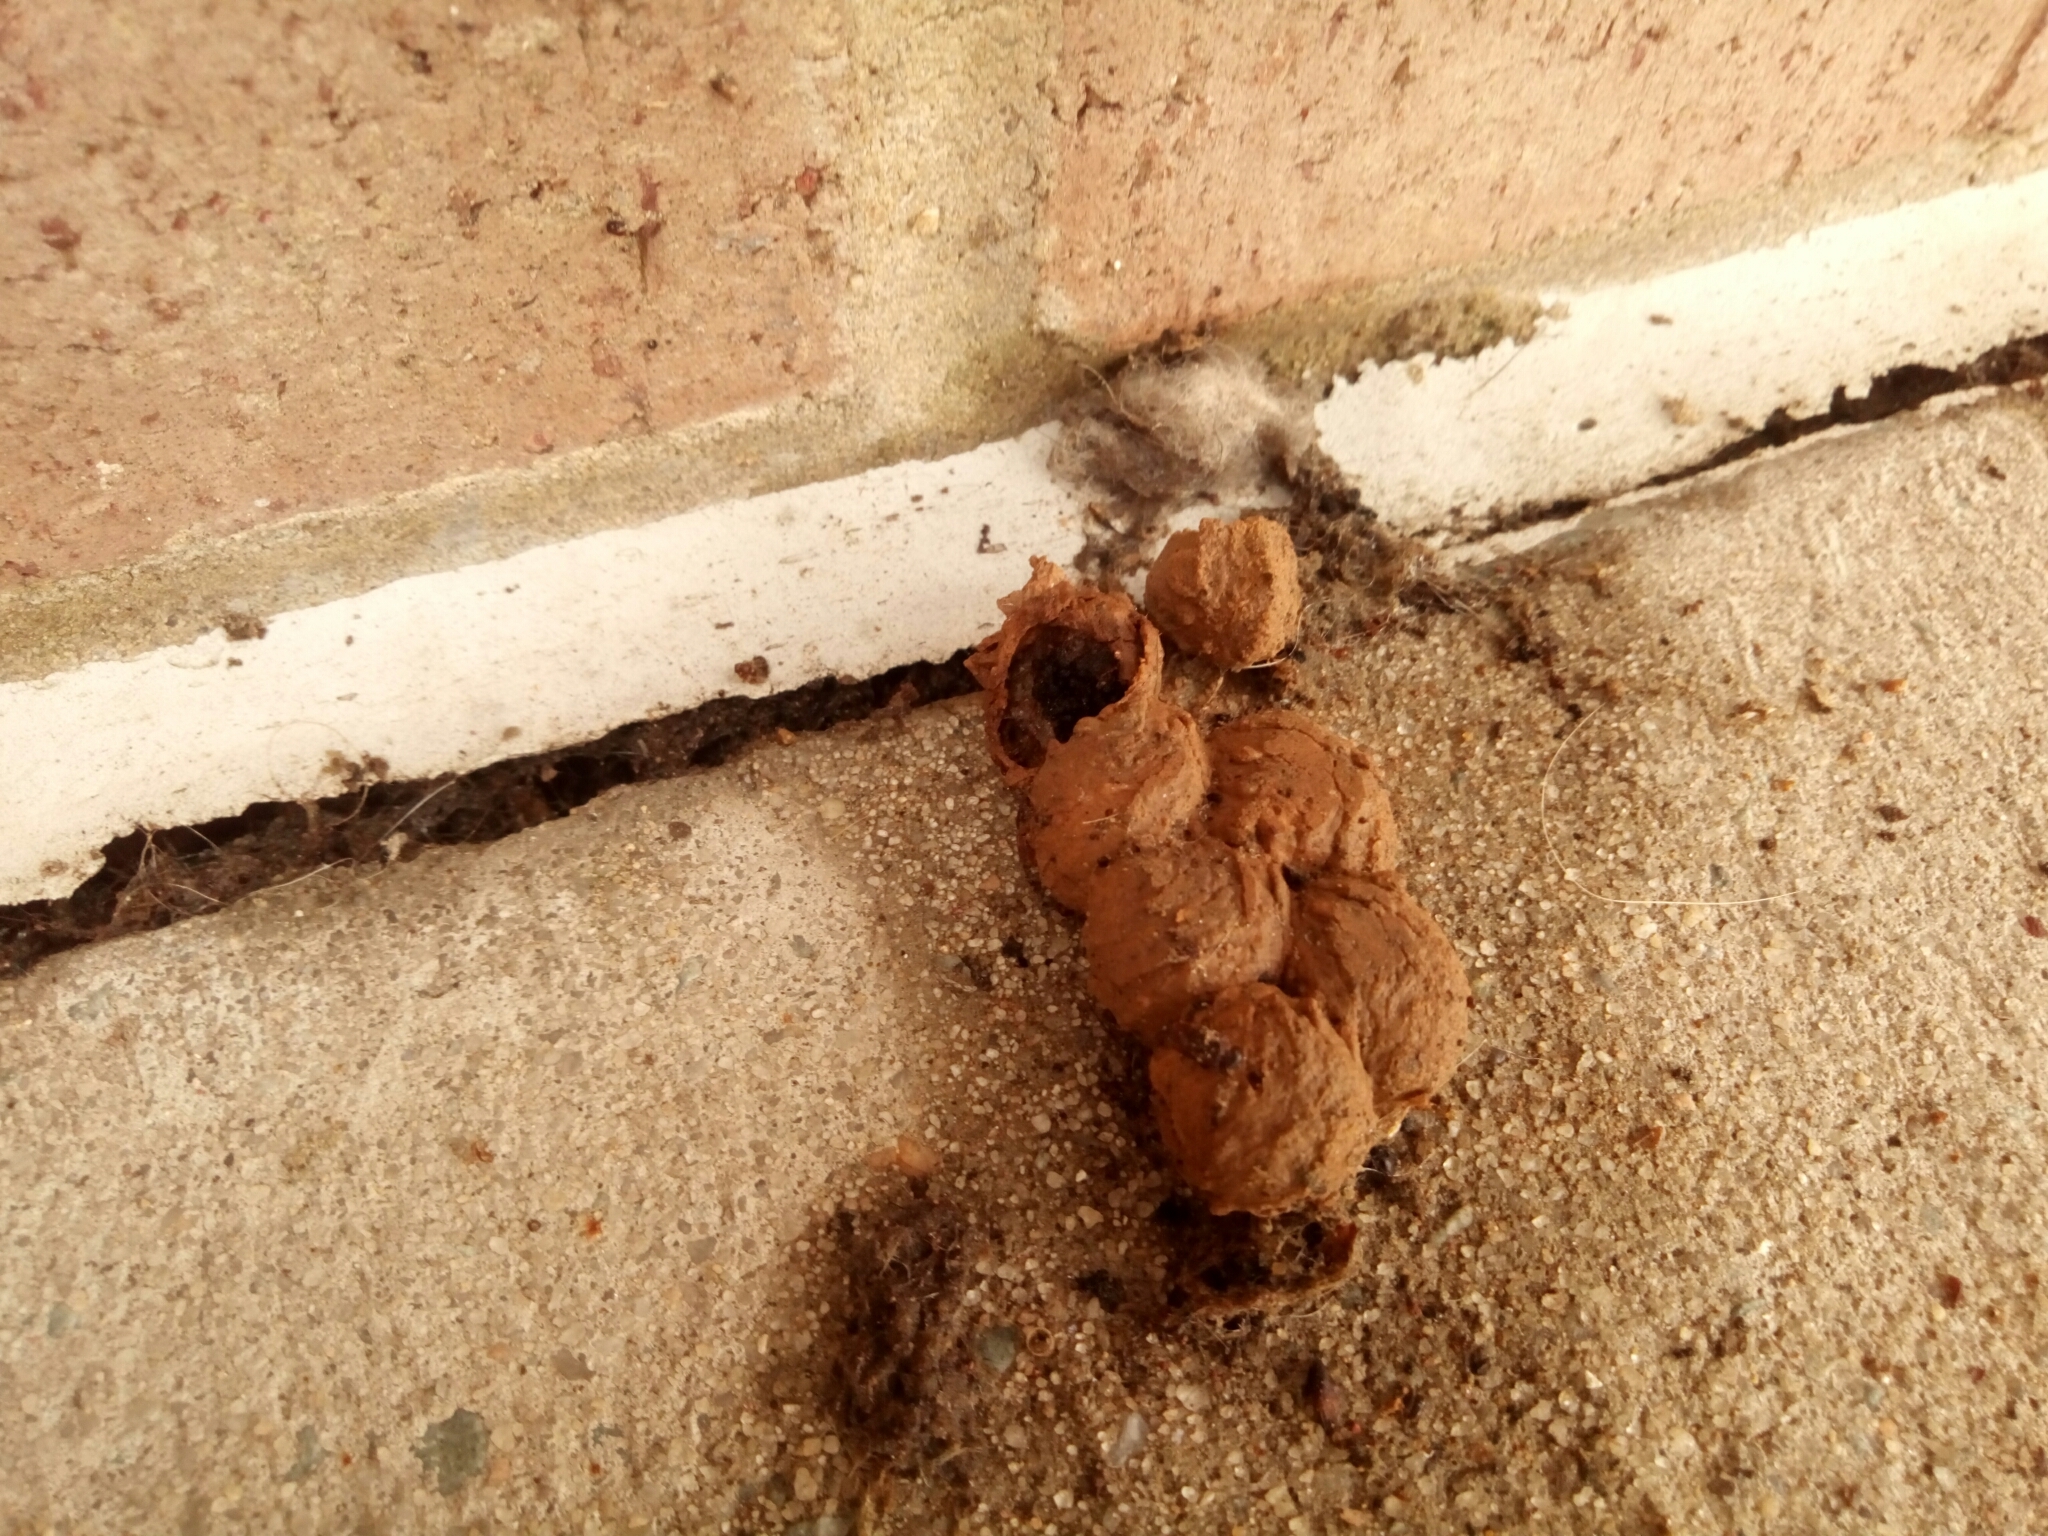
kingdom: Animalia
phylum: Arthropoda
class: Insecta
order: Hymenoptera
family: Vespidae
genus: Eumenes
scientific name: Eumenes
